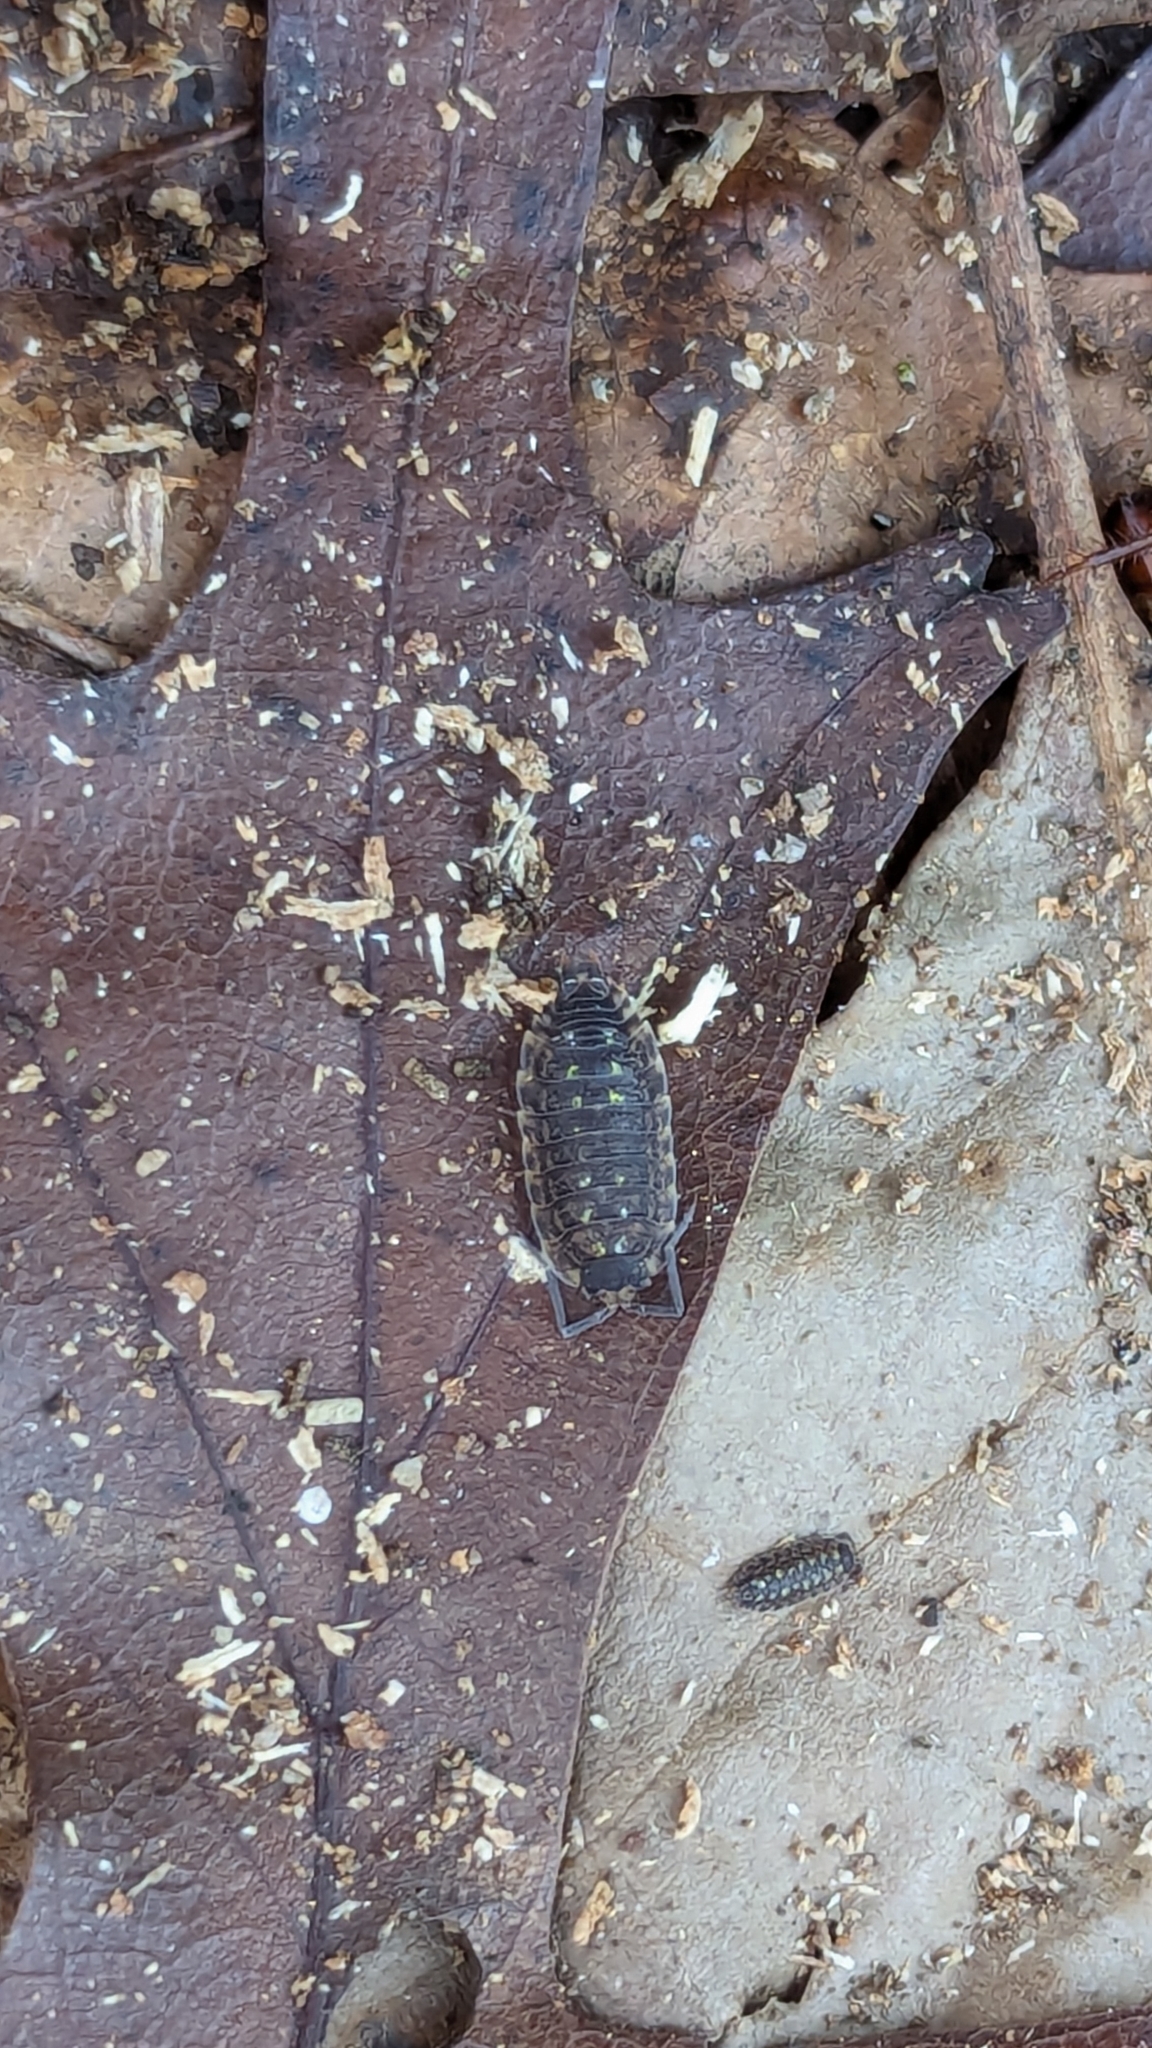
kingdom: Animalia
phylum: Arthropoda
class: Malacostraca
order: Isopoda
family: Porcellionidae
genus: Porcellio
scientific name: Porcellio spinicornis
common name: Painted woodlouse
